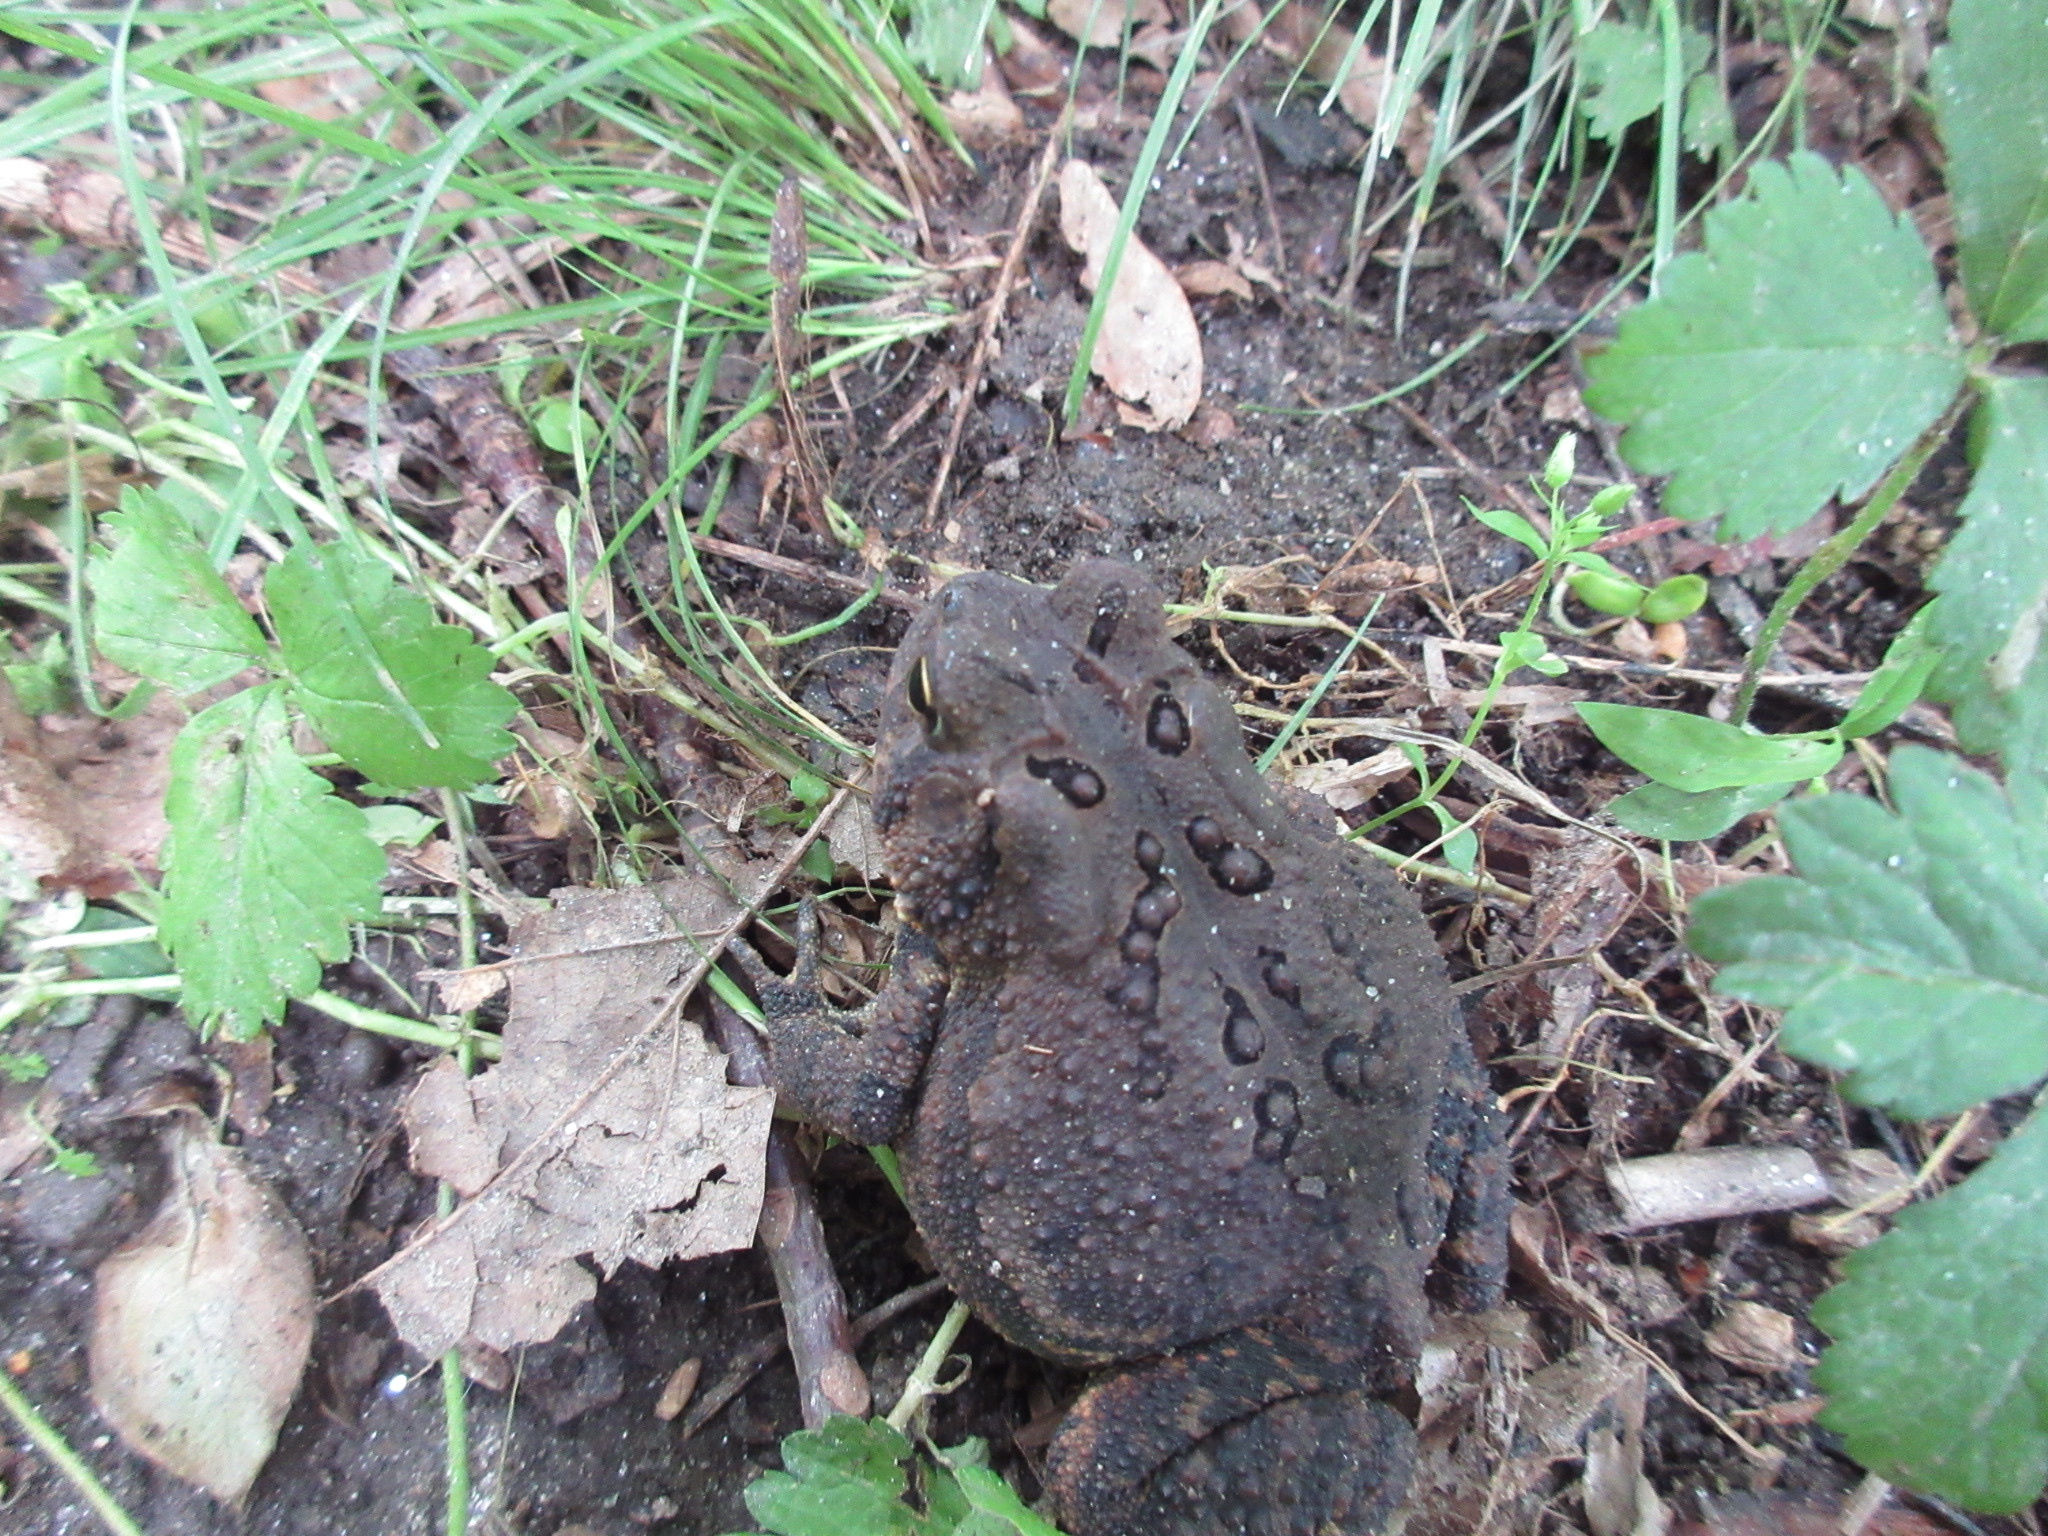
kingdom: Animalia
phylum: Chordata
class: Amphibia
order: Anura
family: Bufonidae
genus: Anaxyrus
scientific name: Anaxyrus americanus
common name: American toad
